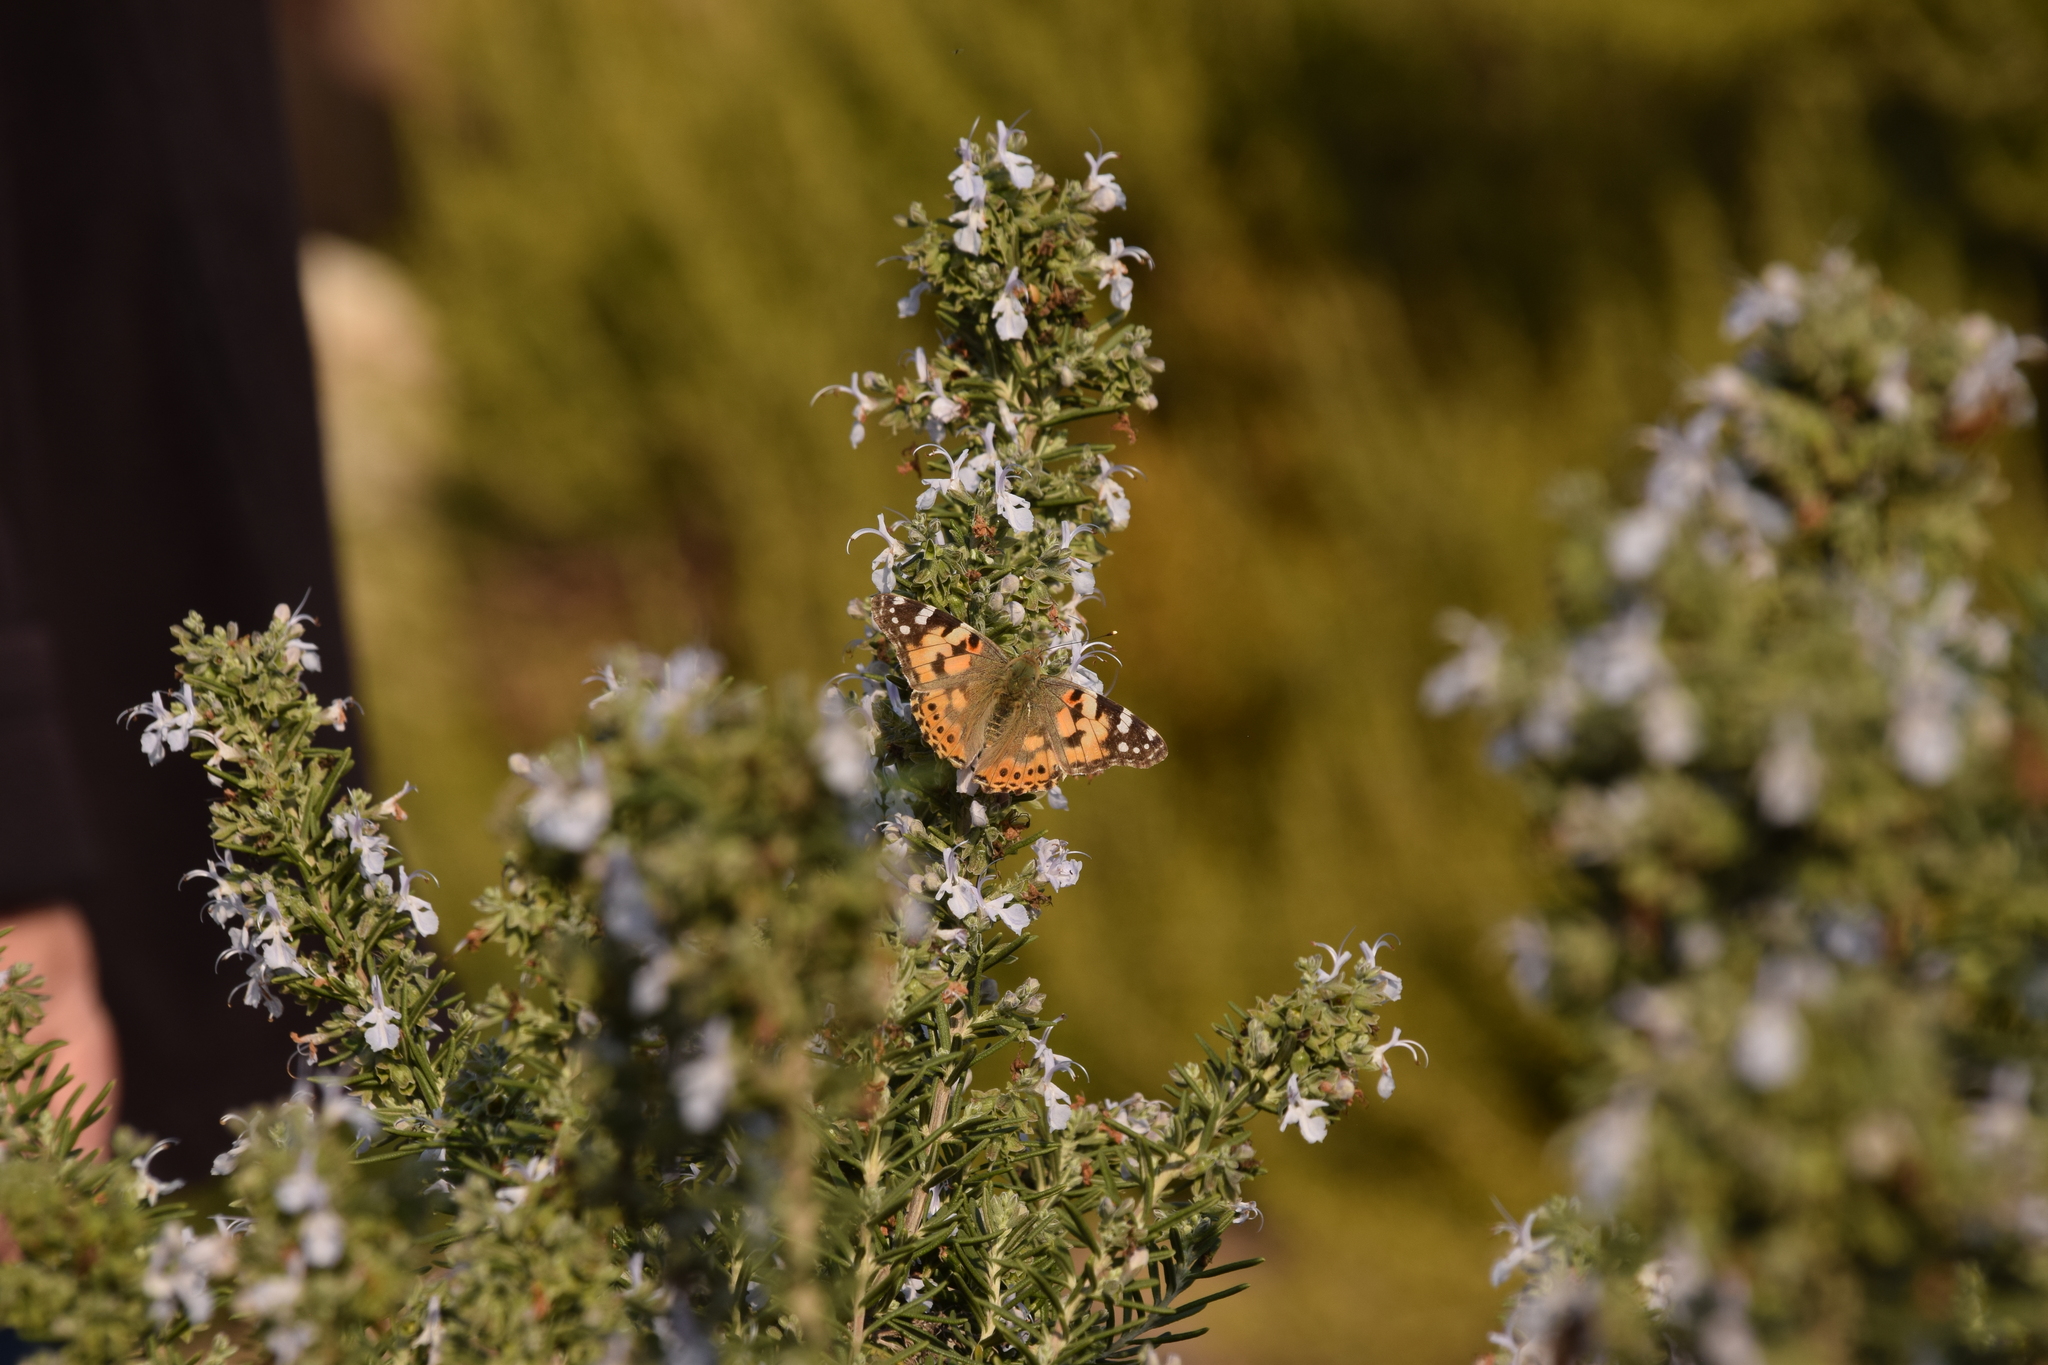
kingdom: Animalia
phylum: Arthropoda
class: Insecta
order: Lepidoptera
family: Nymphalidae
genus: Vanessa
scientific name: Vanessa cardui
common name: Painted lady
